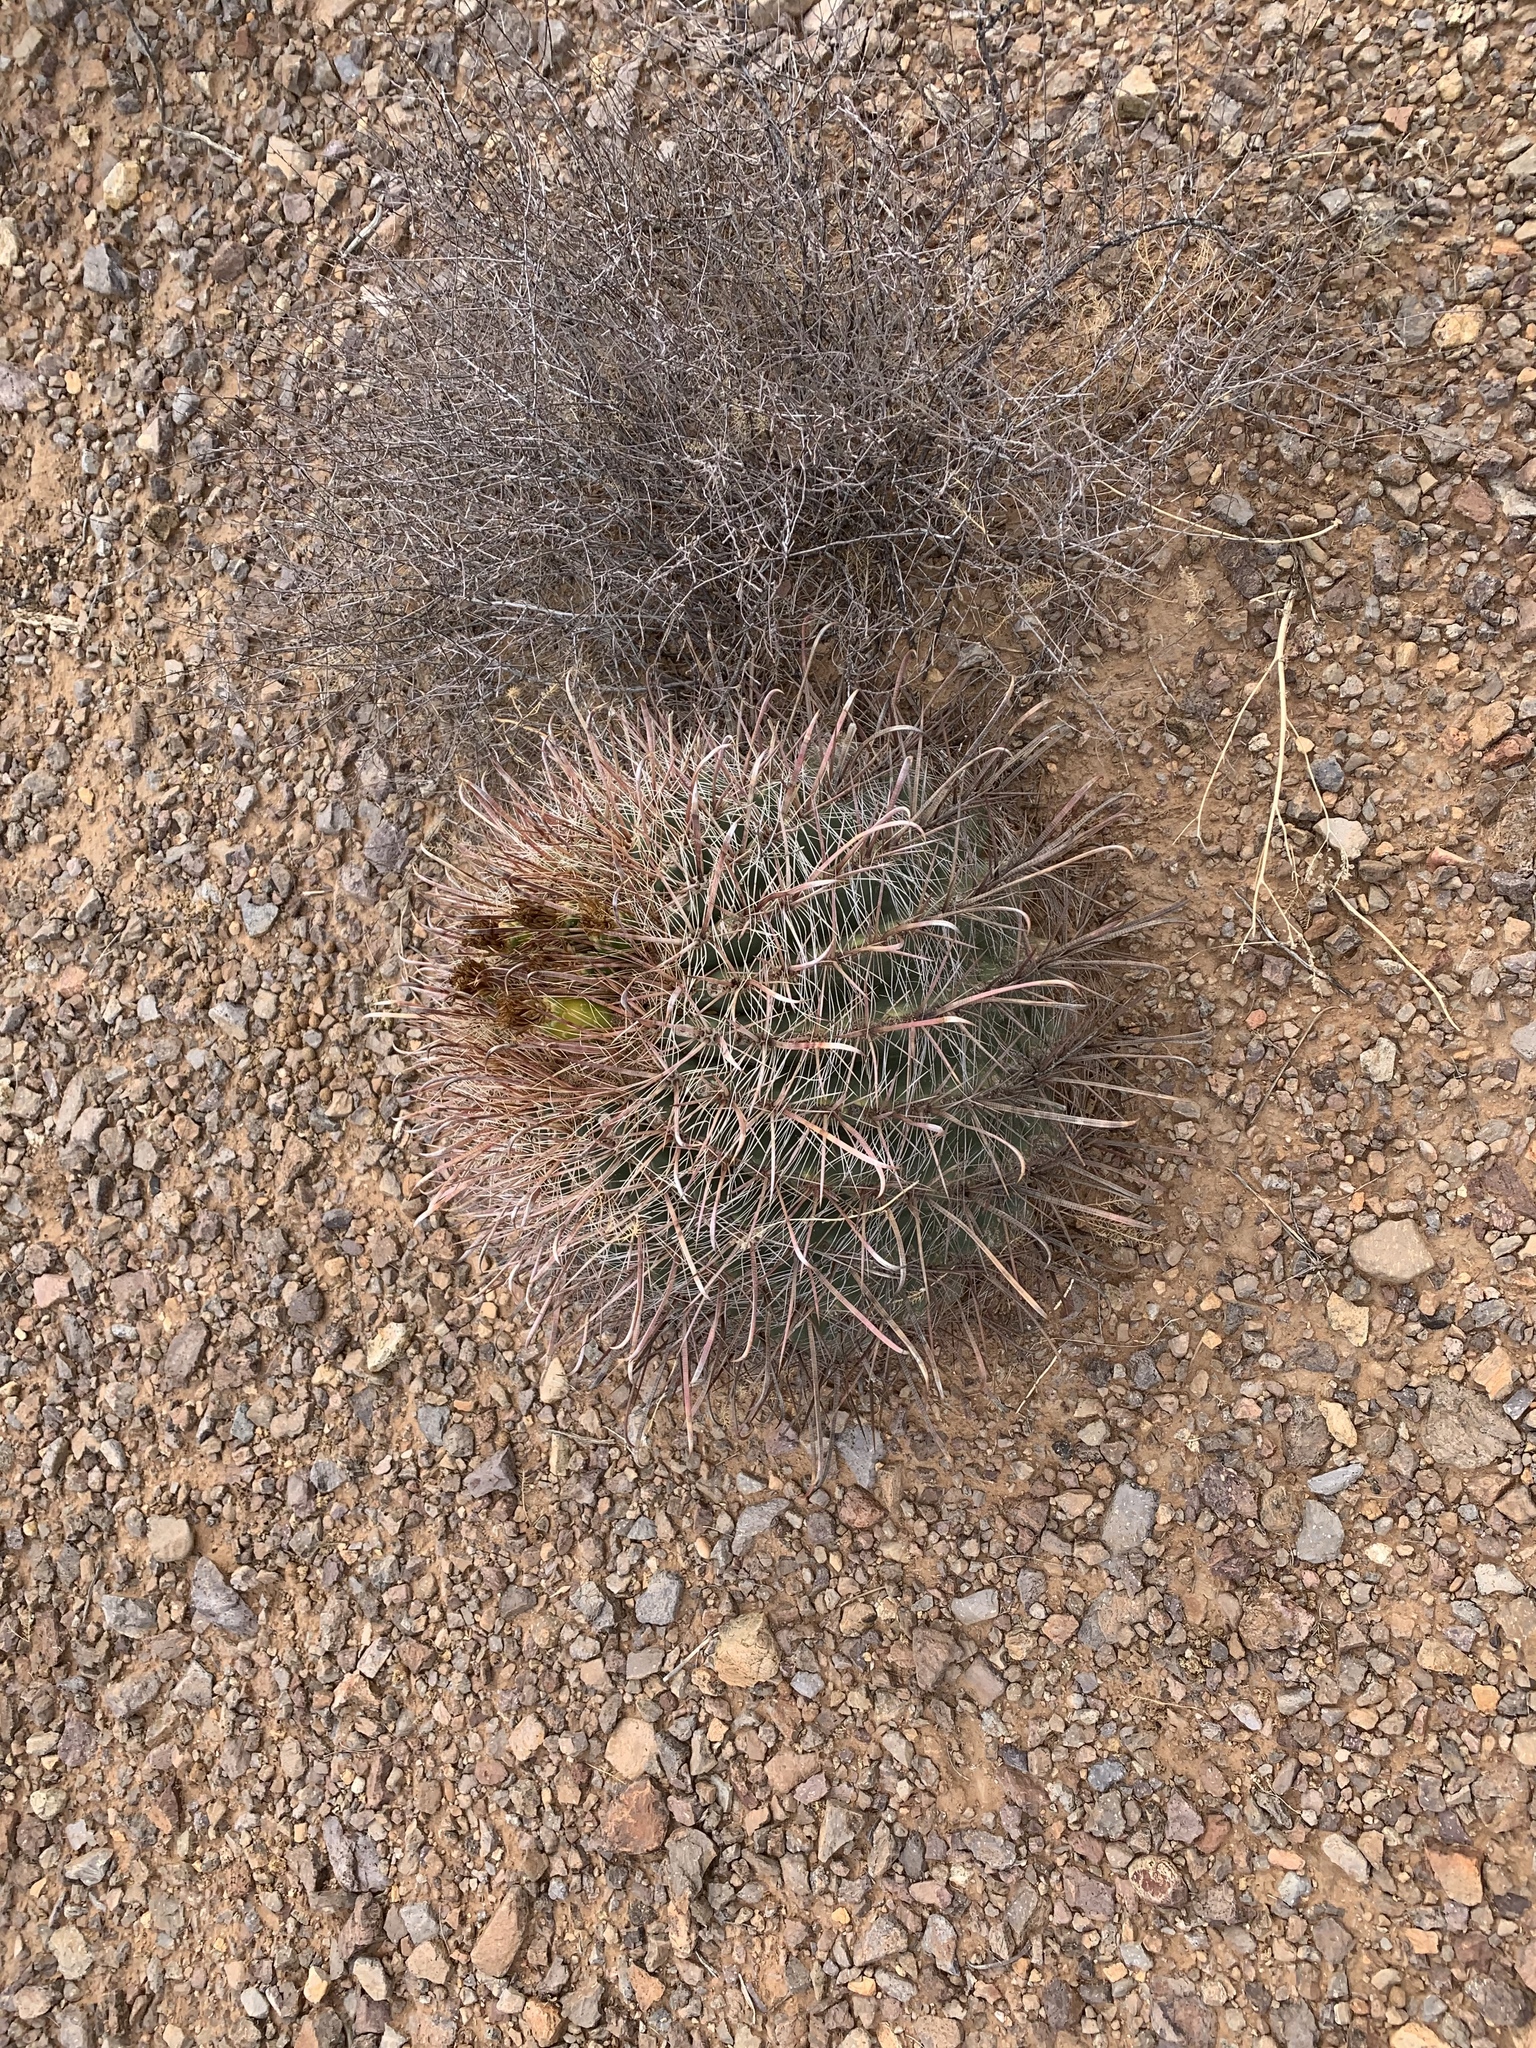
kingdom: Plantae
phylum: Tracheophyta
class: Magnoliopsida
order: Caryophyllales
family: Cactaceae
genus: Ferocactus
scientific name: Ferocactus wislizeni
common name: Candy barrel cactus
